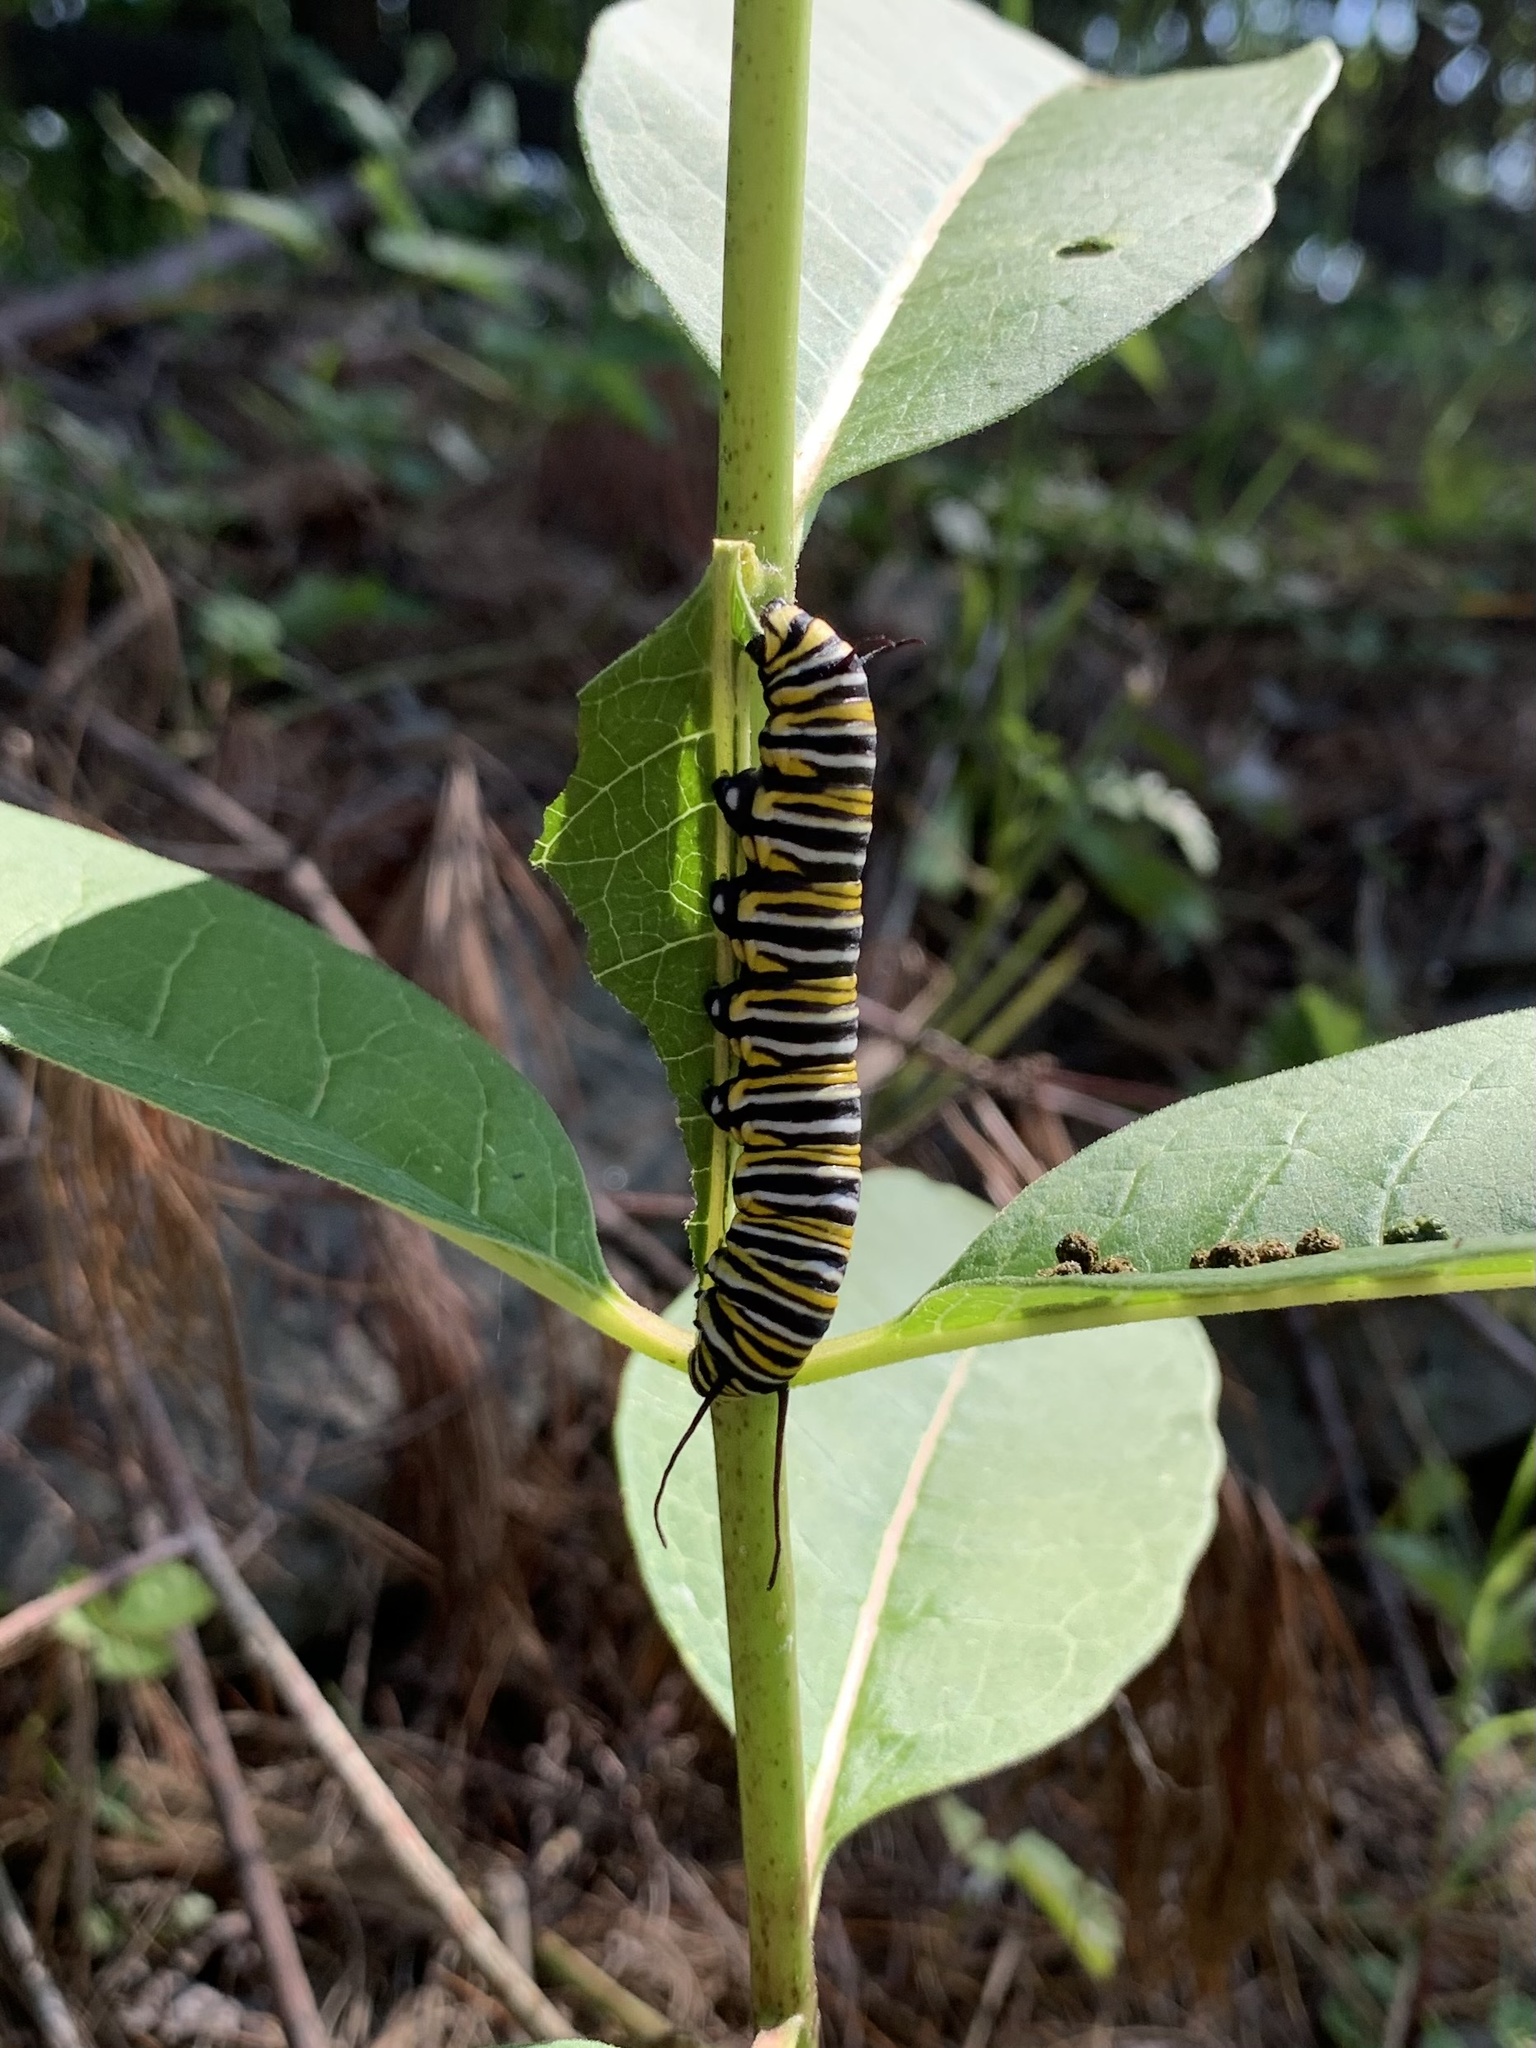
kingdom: Animalia
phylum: Arthropoda
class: Insecta
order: Lepidoptera
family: Nymphalidae
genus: Danaus
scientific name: Danaus plexippus
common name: Monarch
